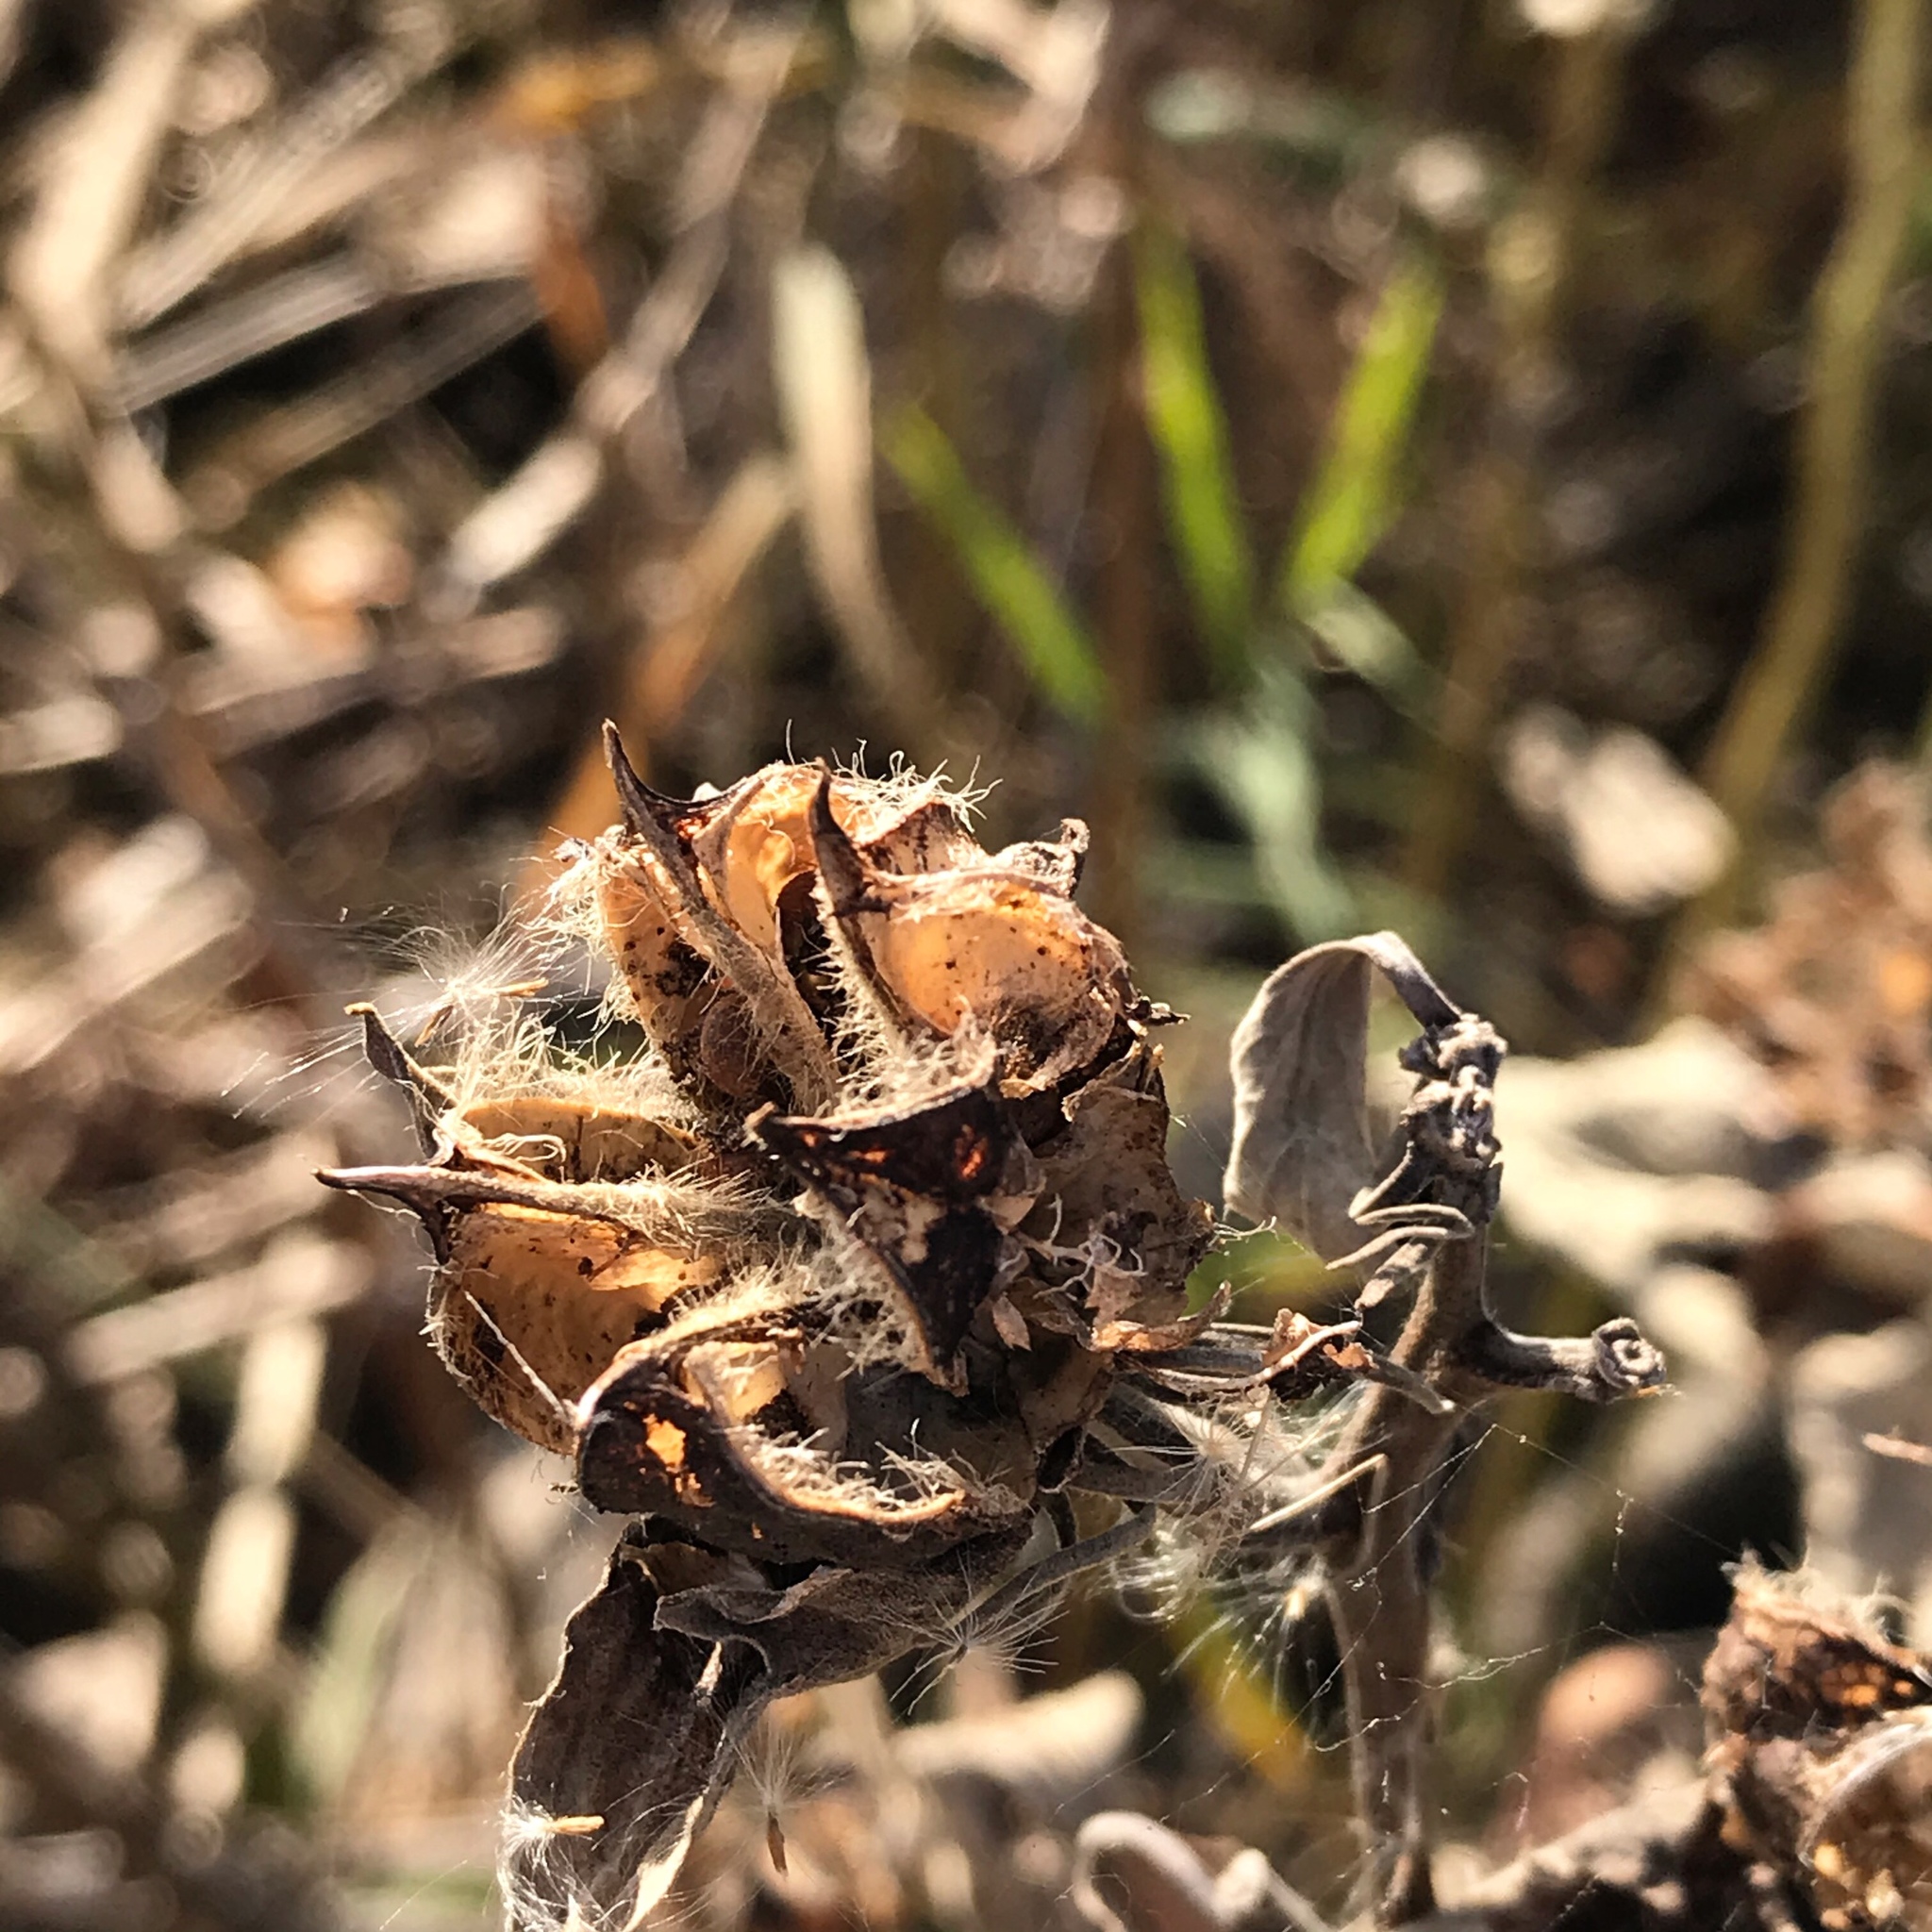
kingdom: Plantae
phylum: Tracheophyta
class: Magnoliopsida
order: Malvales
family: Malvaceae
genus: Hibiscus
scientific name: Hibiscus moscheutos
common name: Common rose-mallow
